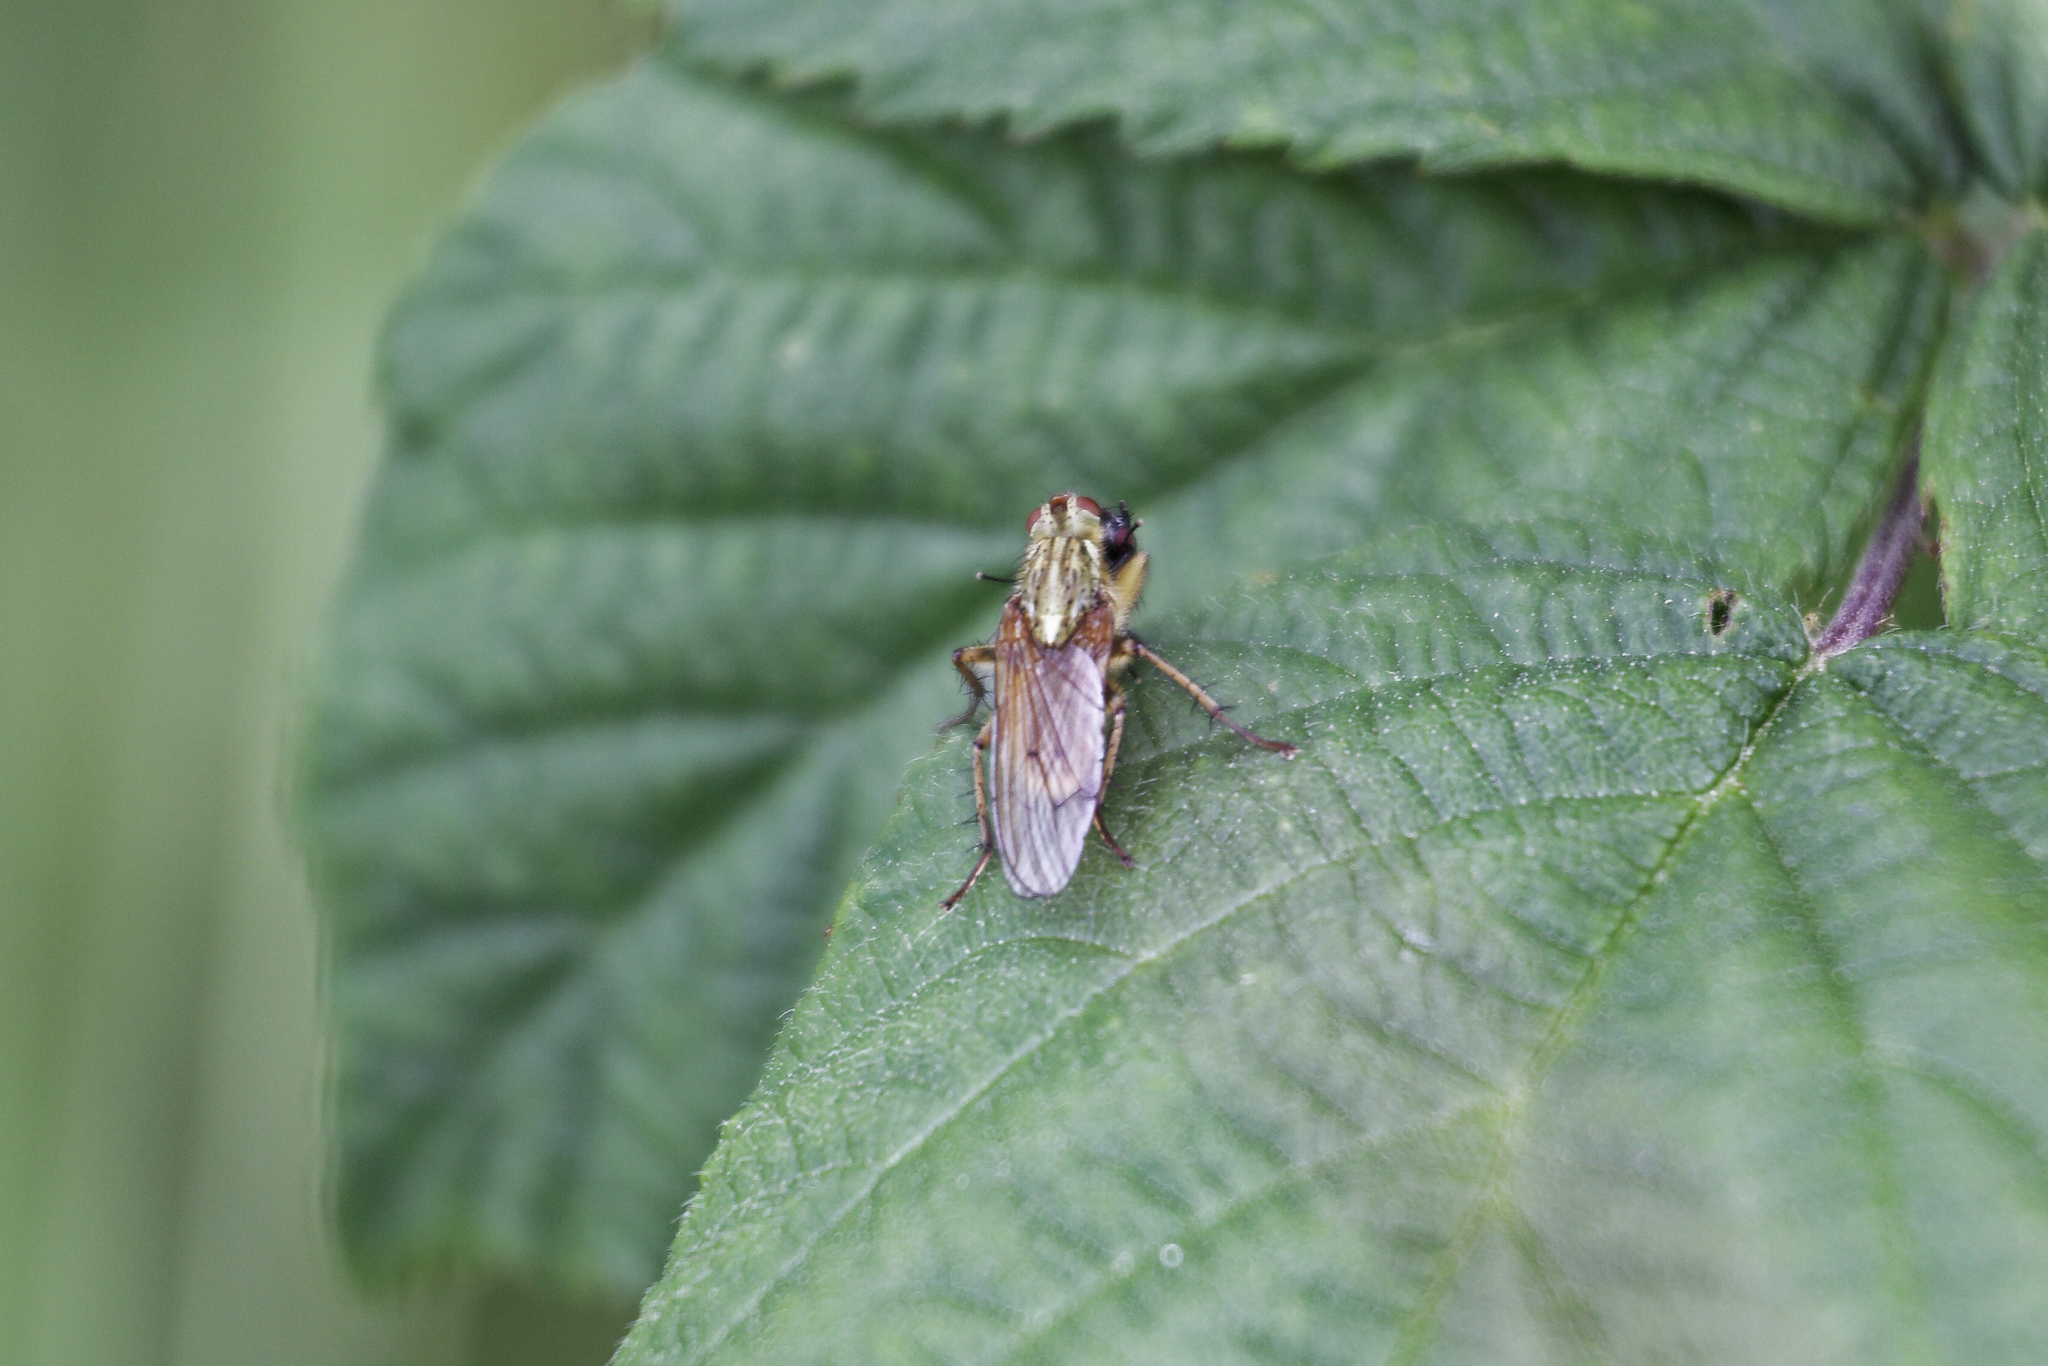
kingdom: Animalia
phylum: Arthropoda
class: Insecta
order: Diptera
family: Scathophagidae
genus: Scathophaga
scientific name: Scathophaga stercoraria
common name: Yellow dung fly
